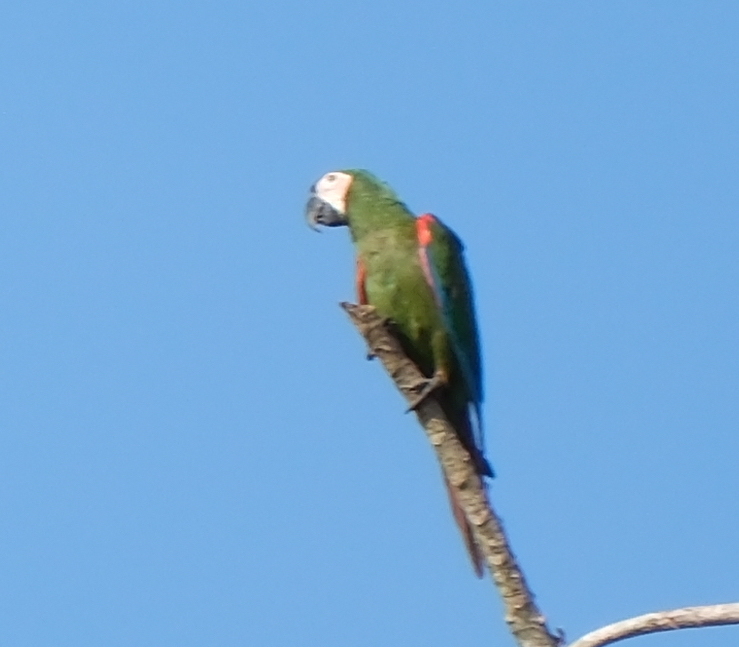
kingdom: Animalia
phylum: Chordata
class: Aves
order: Psittaciformes
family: Psittacidae
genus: Ara
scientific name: Ara severus
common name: Chestnut-fronted macaw
